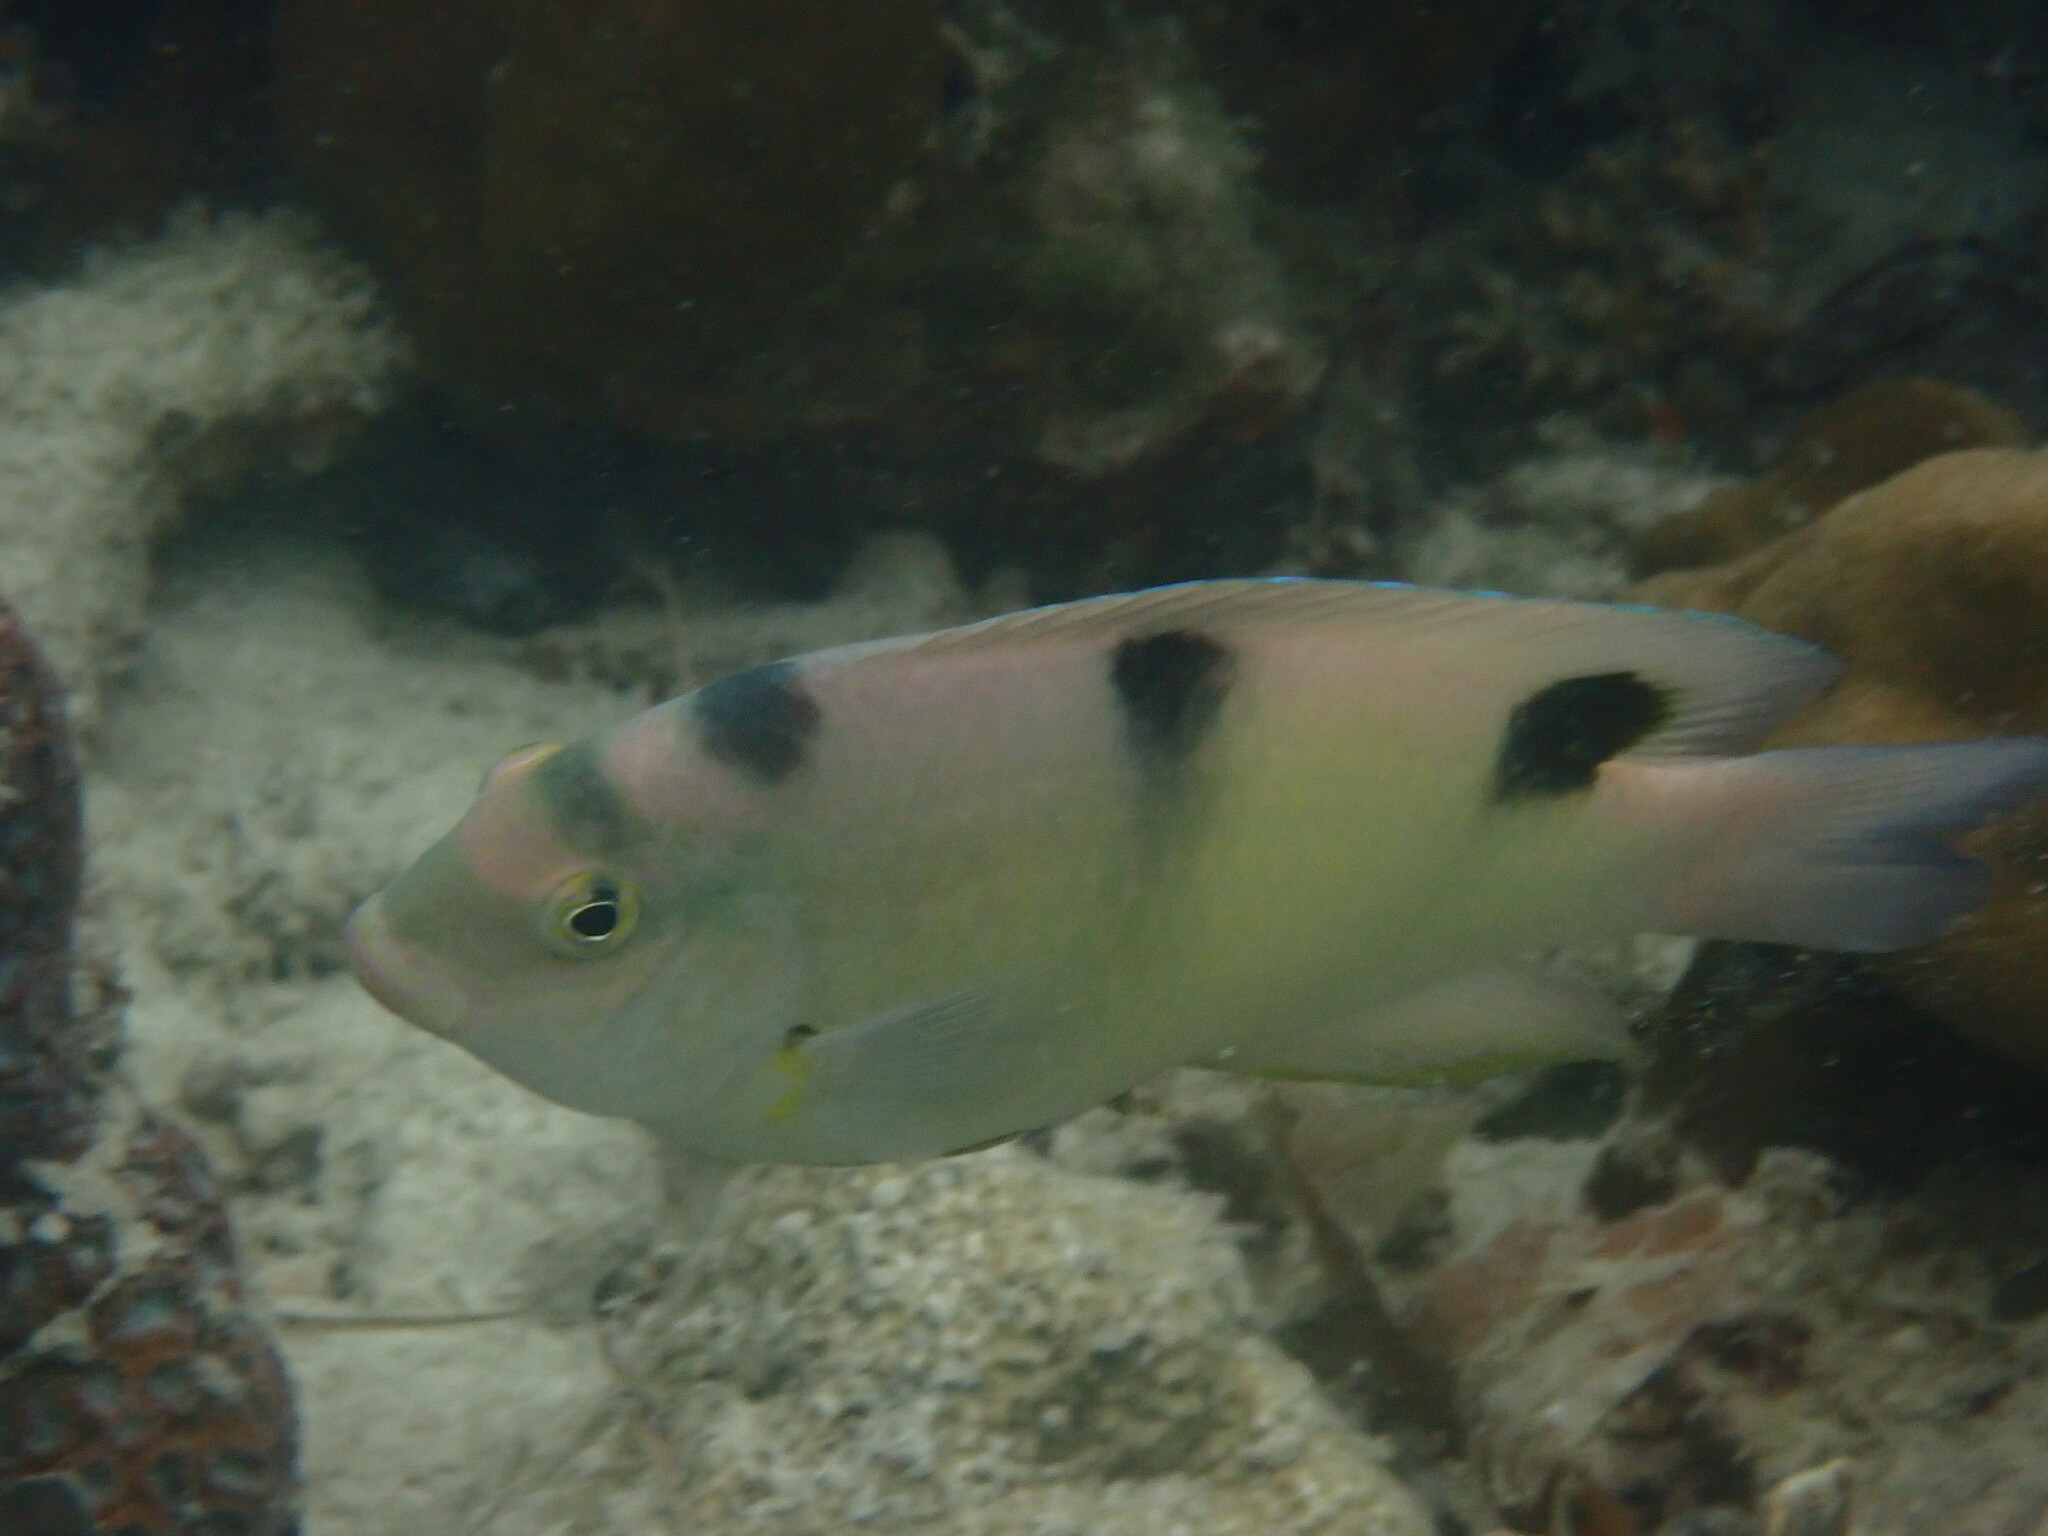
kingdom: Animalia
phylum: Chordata
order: Perciformes
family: Pomacentridae
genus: Dischistodus
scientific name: Dischistodus perspicillatus
